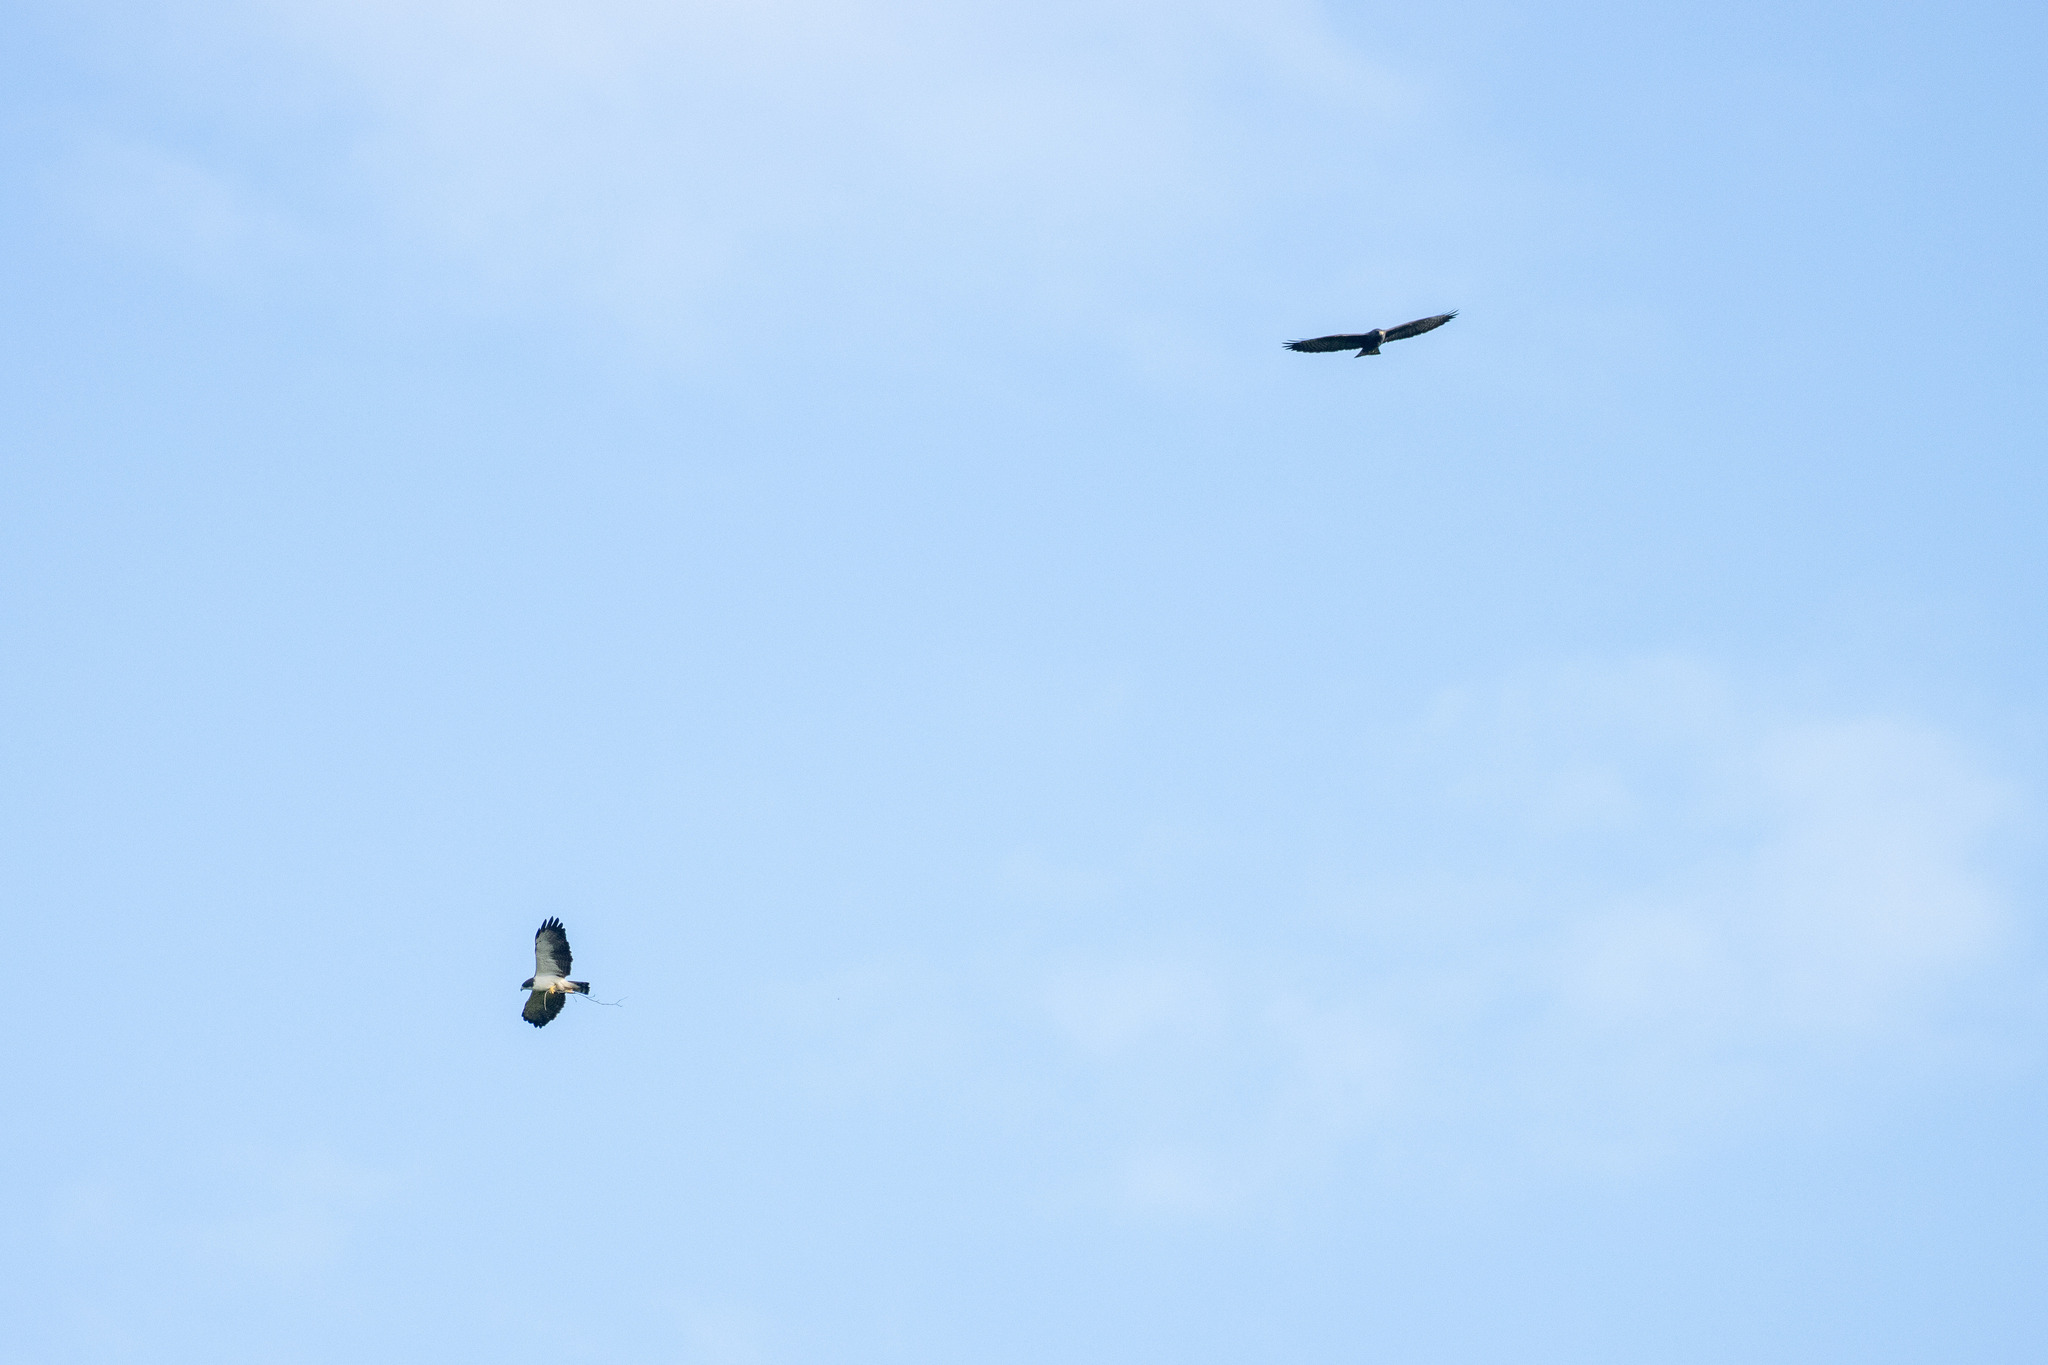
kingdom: Animalia
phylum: Chordata
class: Aves
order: Accipitriformes
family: Accipitridae
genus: Buteo
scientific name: Buteo brachyurus
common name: Short-tailed hawk
